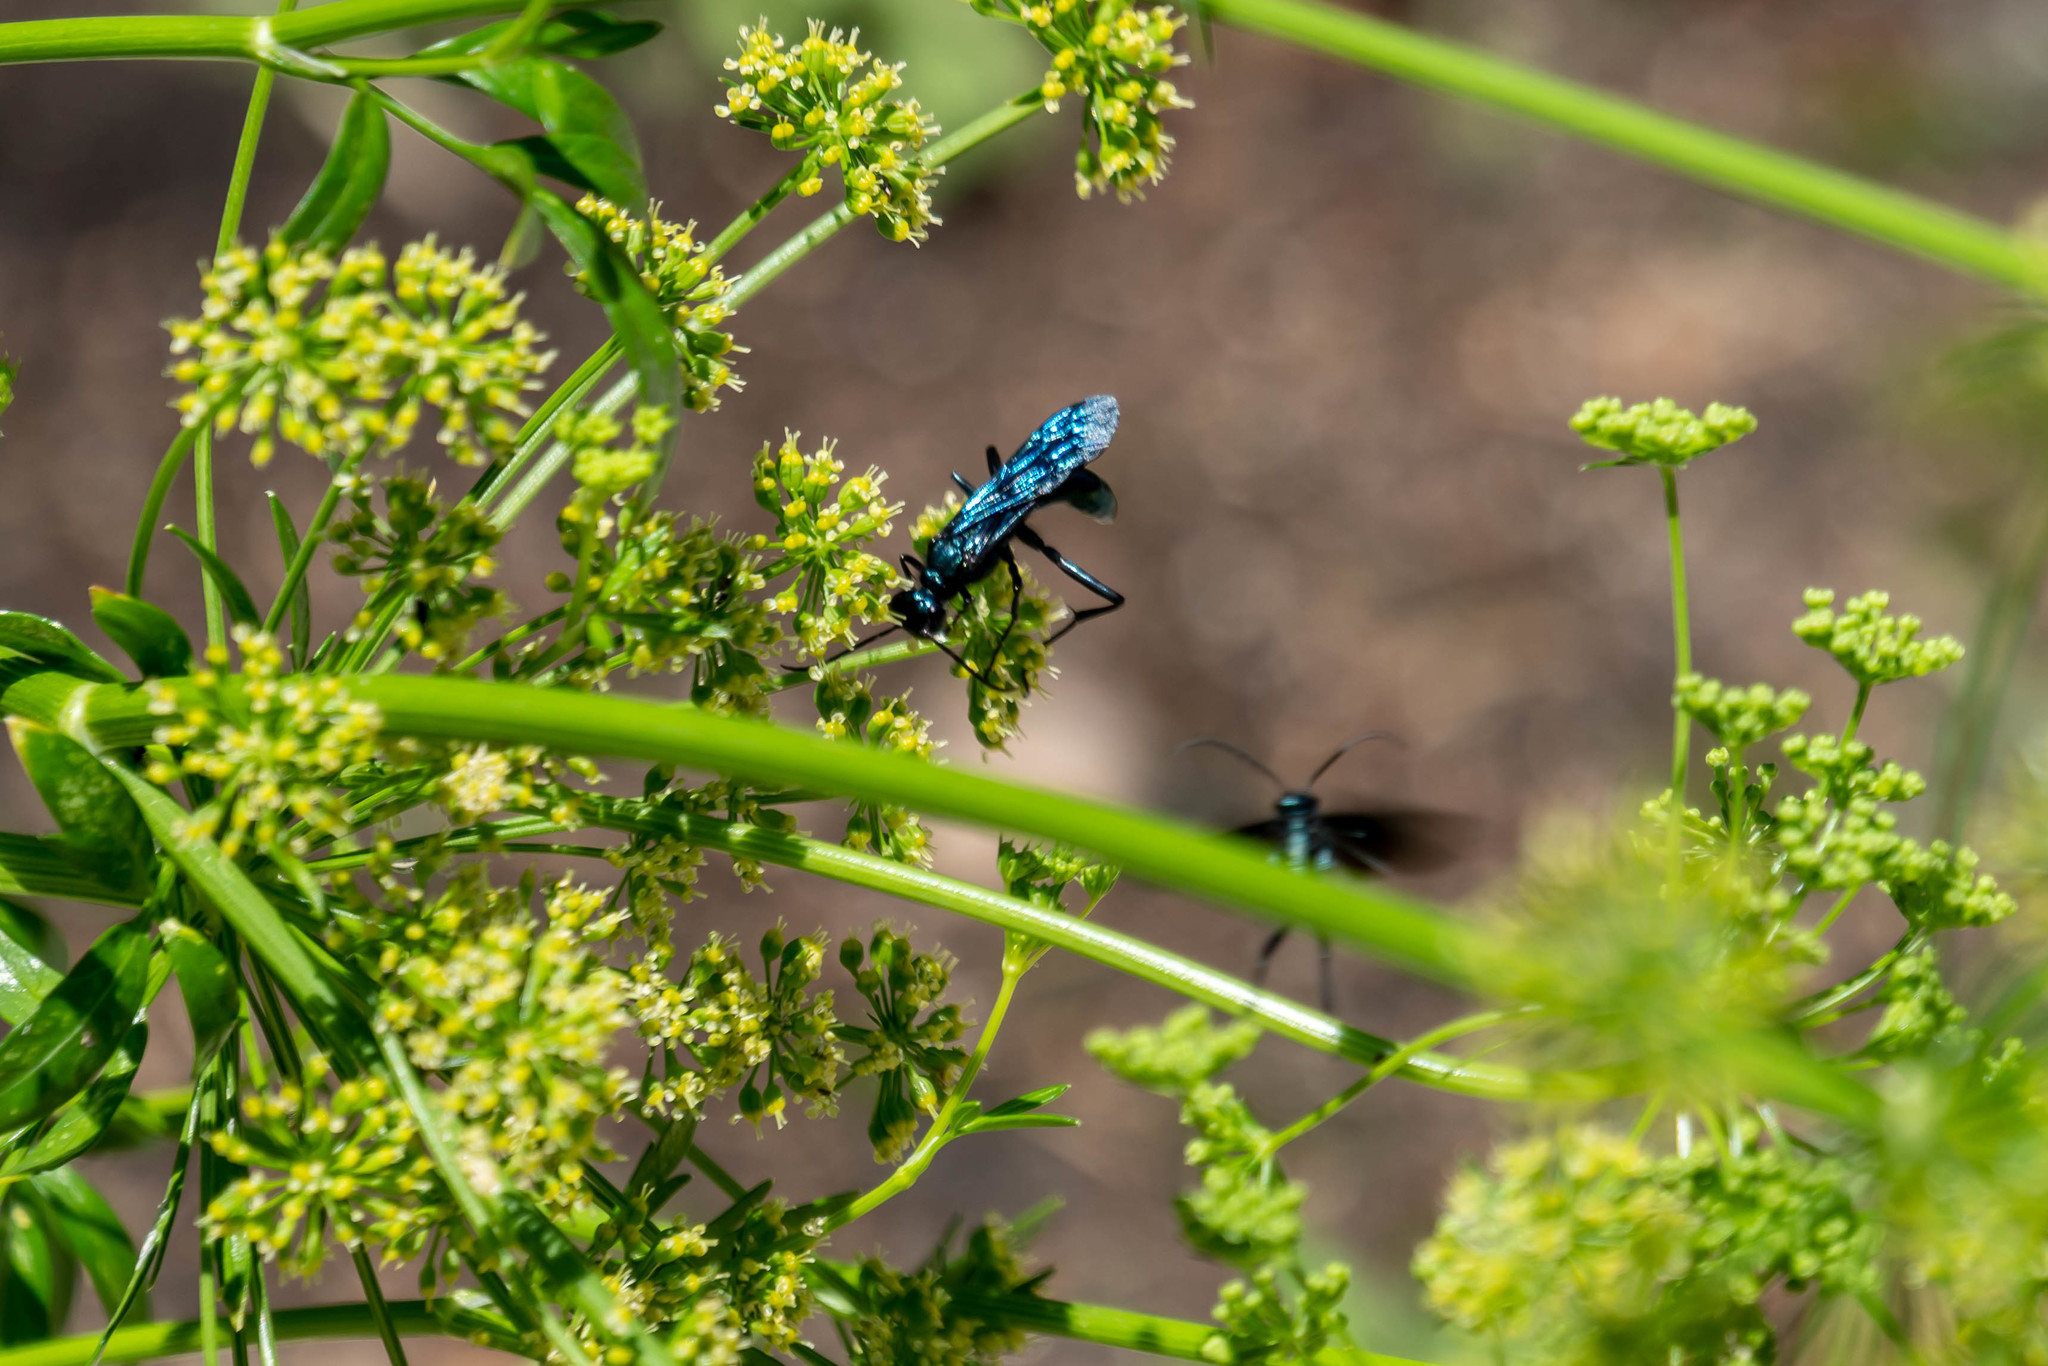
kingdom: Animalia
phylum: Arthropoda
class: Insecta
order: Hymenoptera
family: Sphecidae
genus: Chalybion
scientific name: Chalybion californicum
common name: Mud dauber
